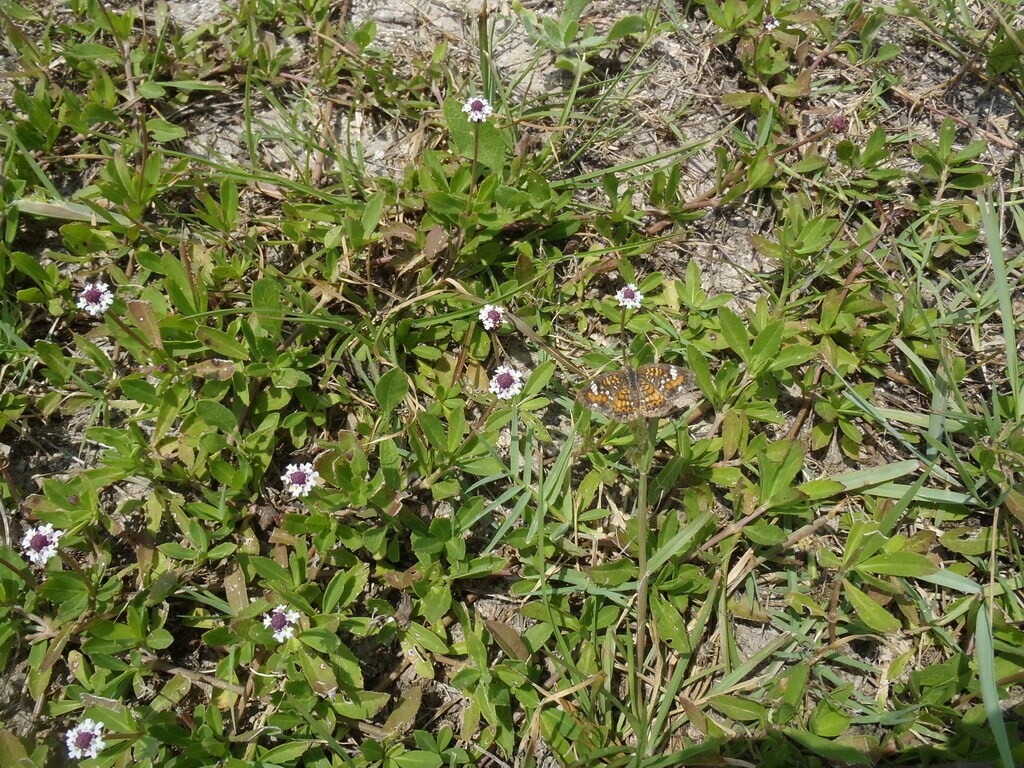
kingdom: Plantae
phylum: Tracheophyta
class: Magnoliopsida
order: Lamiales
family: Verbenaceae
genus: Phyla
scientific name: Phyla nodiflora
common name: Frogfruit
